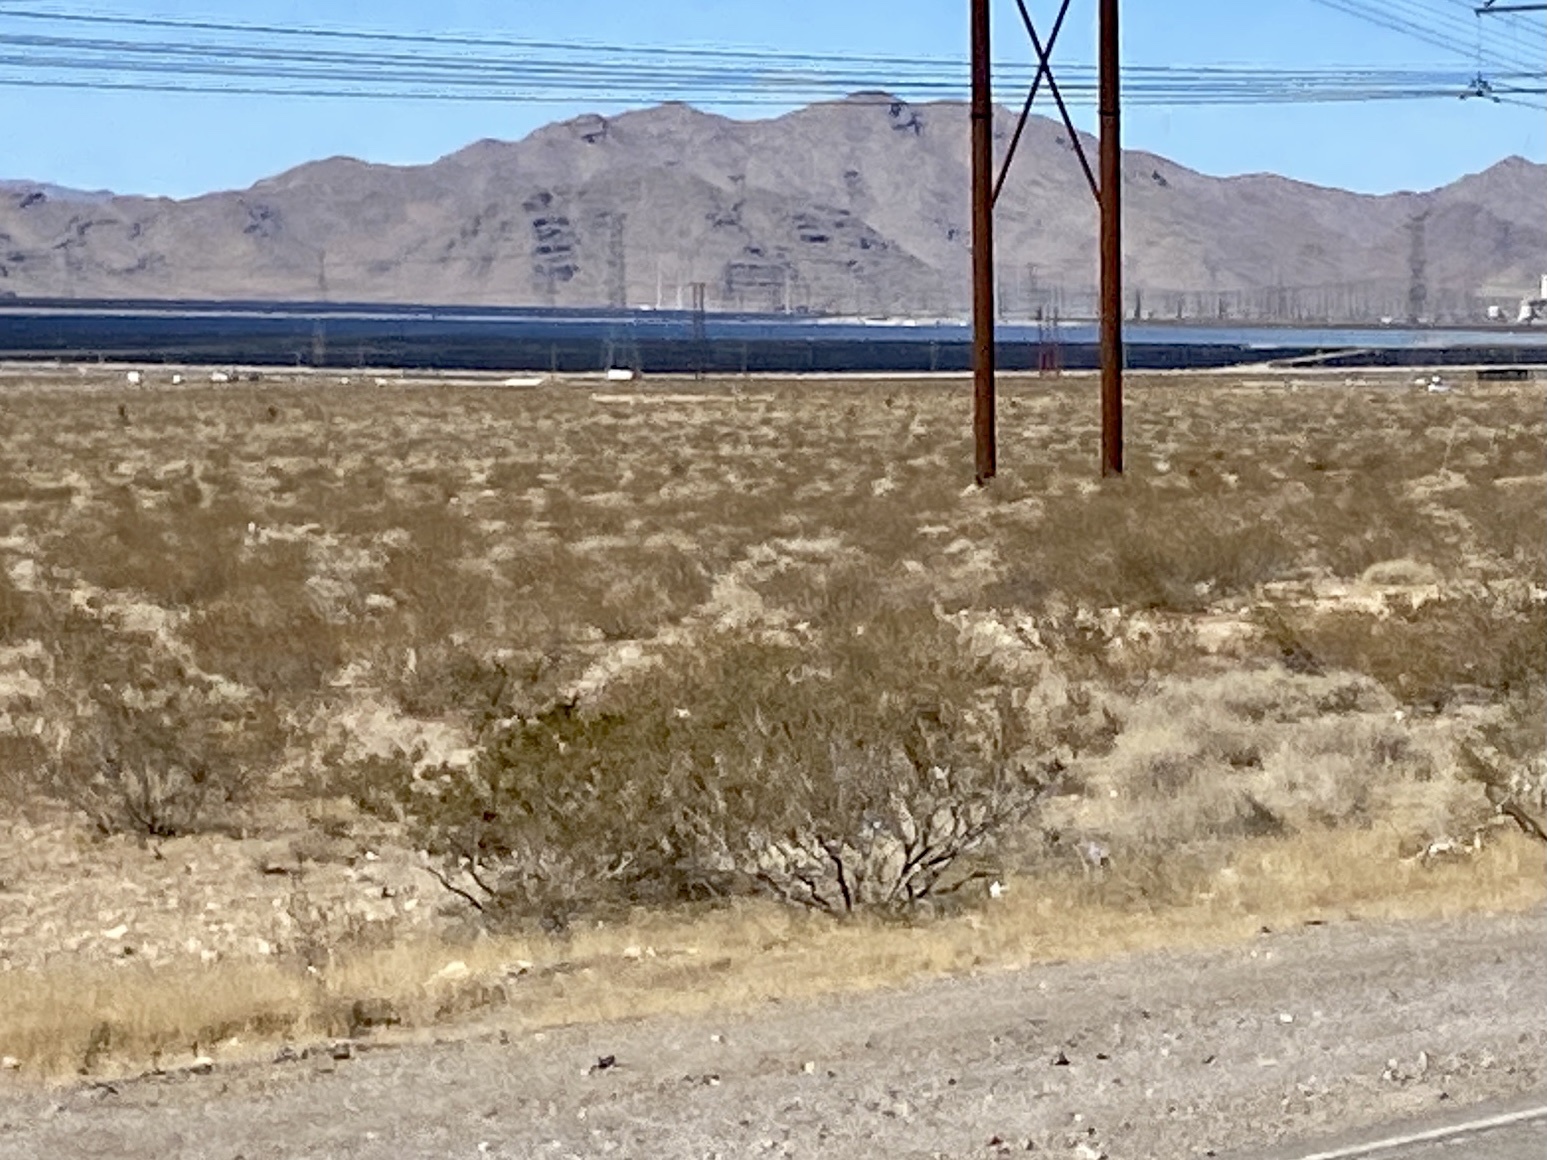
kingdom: Plantae
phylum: Tracheophyta
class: Magnoliopsida
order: Zygophyllales
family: Zygophyllaceae
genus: Larrea
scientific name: Larrea tridentata
